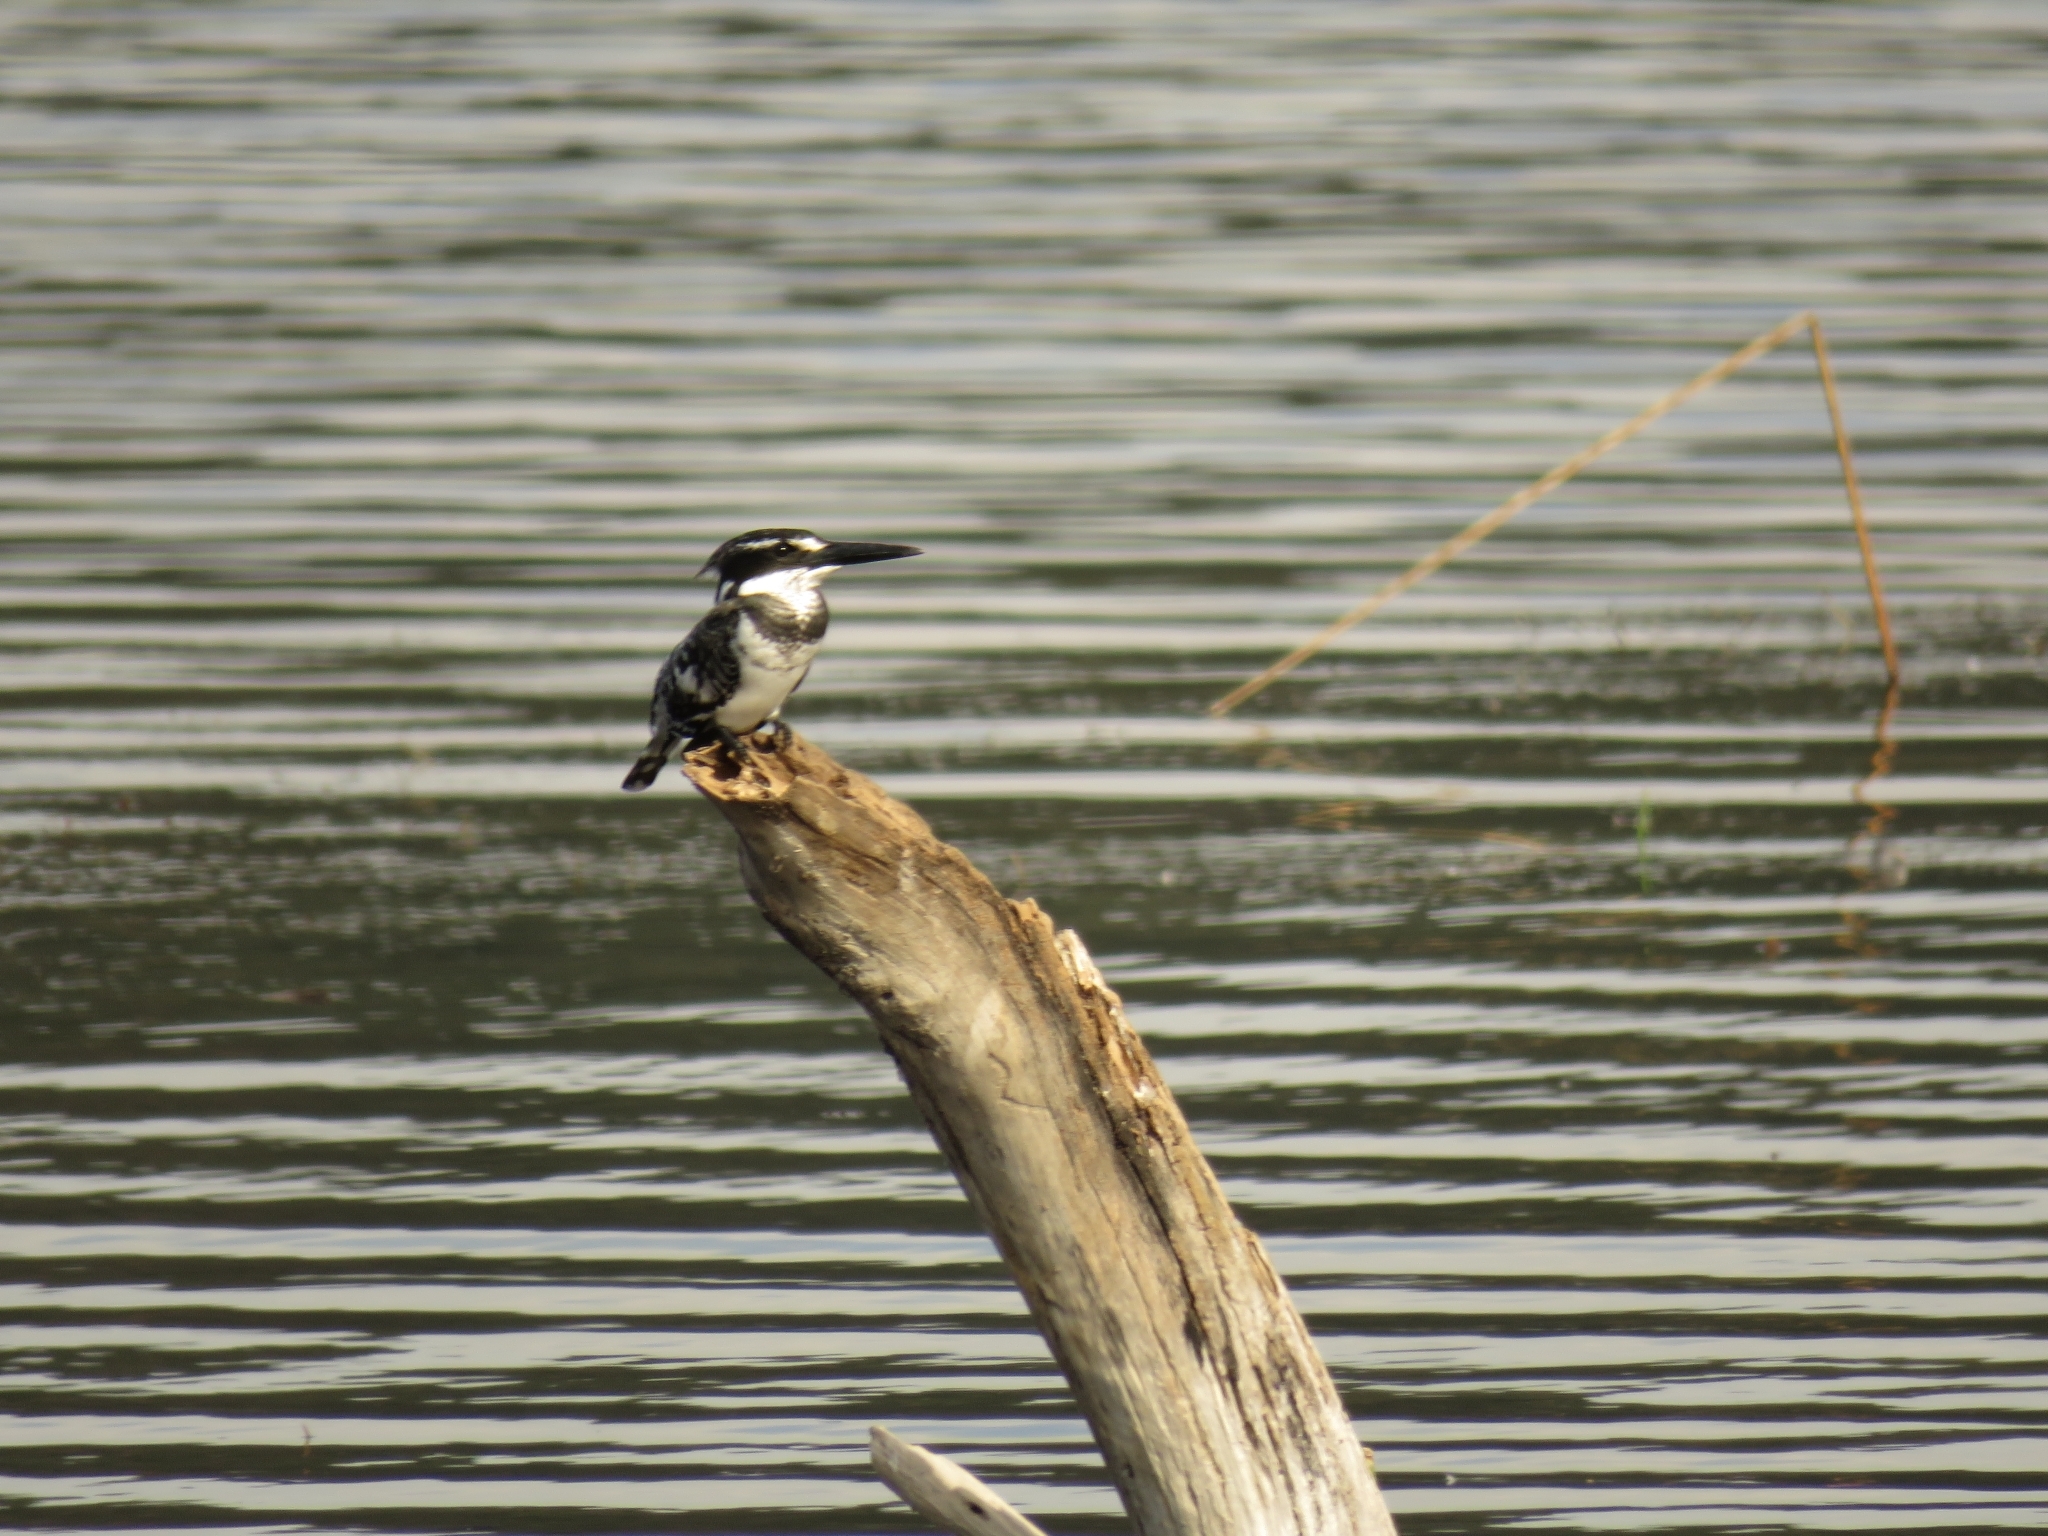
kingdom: Animalia
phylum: Chordata
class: Aves
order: Coraciiformes
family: Alcedinidae
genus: Ceryle
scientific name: Ceryle rudis
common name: Pied kingfisher
